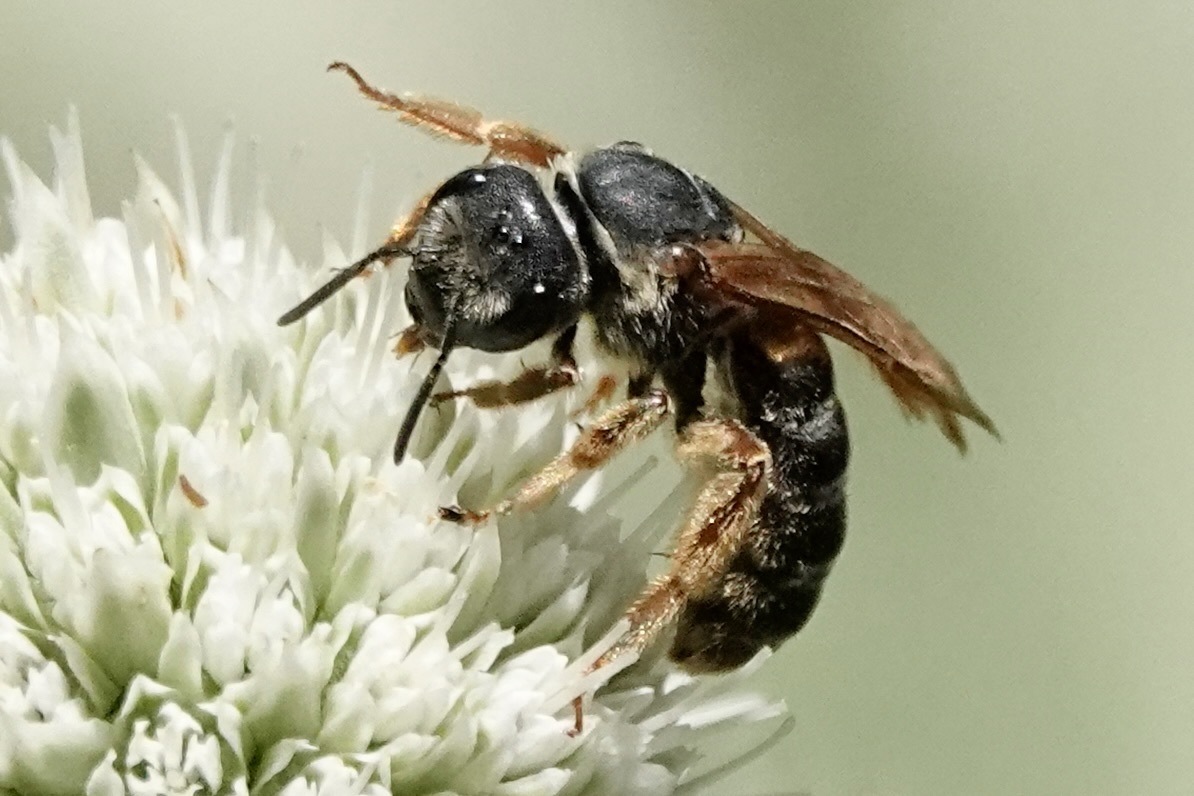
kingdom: Animalia
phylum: Arthropoda
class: Insecta
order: Hymenoptera
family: Halictidae
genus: Halictus
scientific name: Halictus parallelus
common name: Parallel-striped sweat bee
